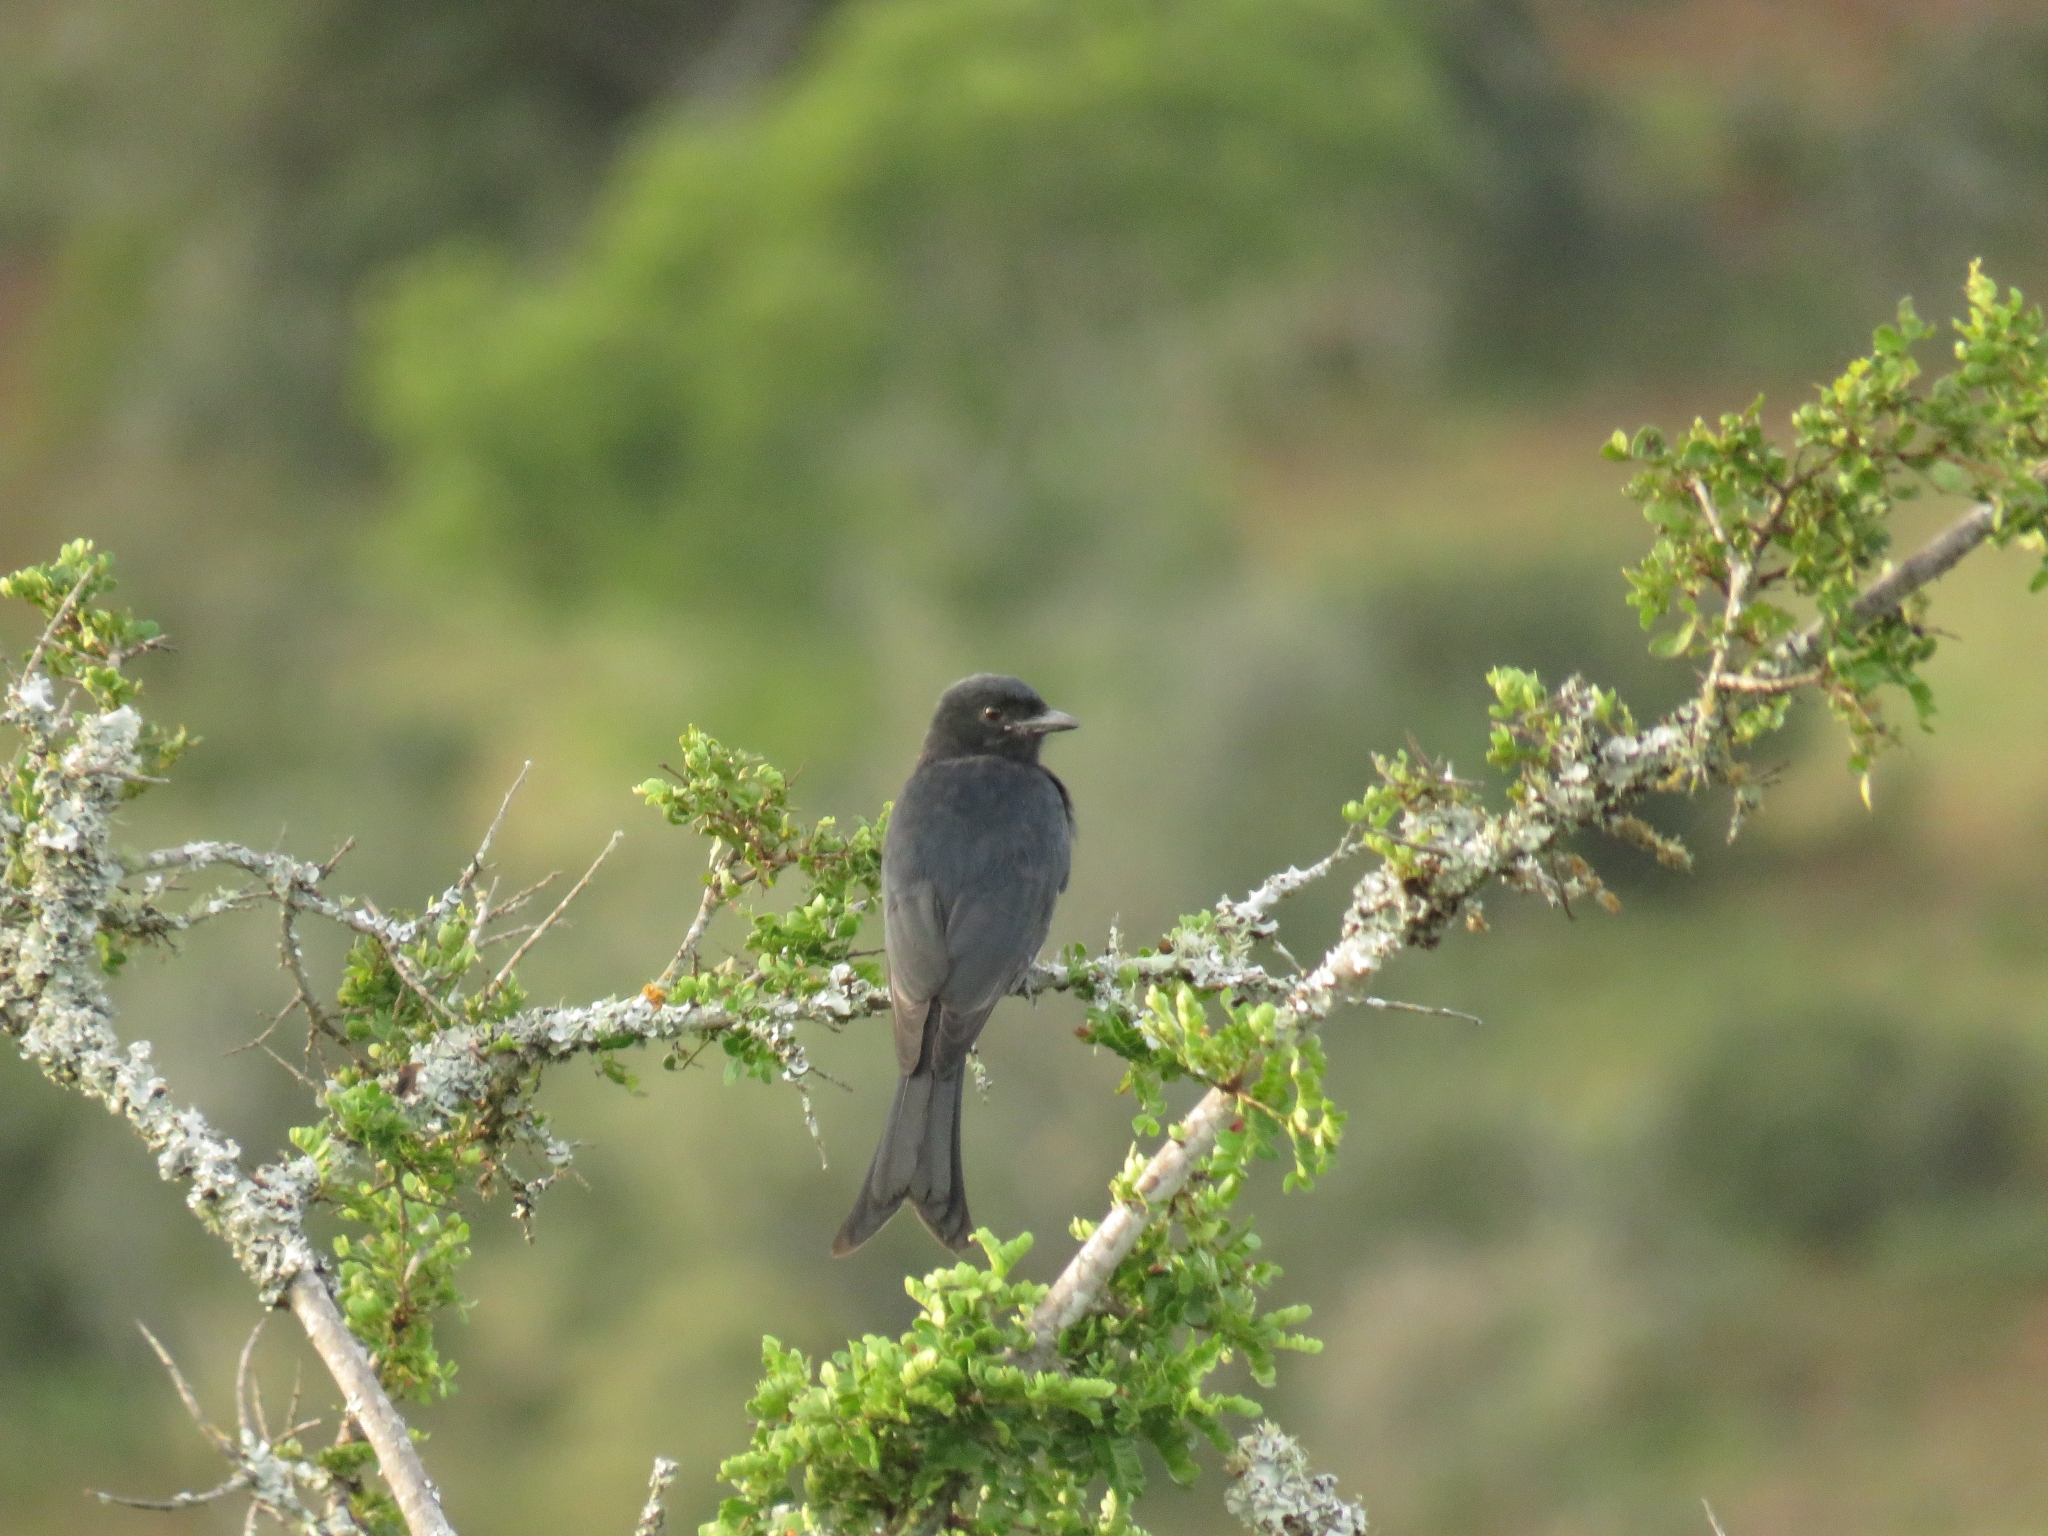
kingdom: Animalia
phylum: Chordata
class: Aves
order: Passeriformes
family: Dicruridae
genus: Dicrurus
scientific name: Dicrurus adsimilis
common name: Fork-tailed drongo
